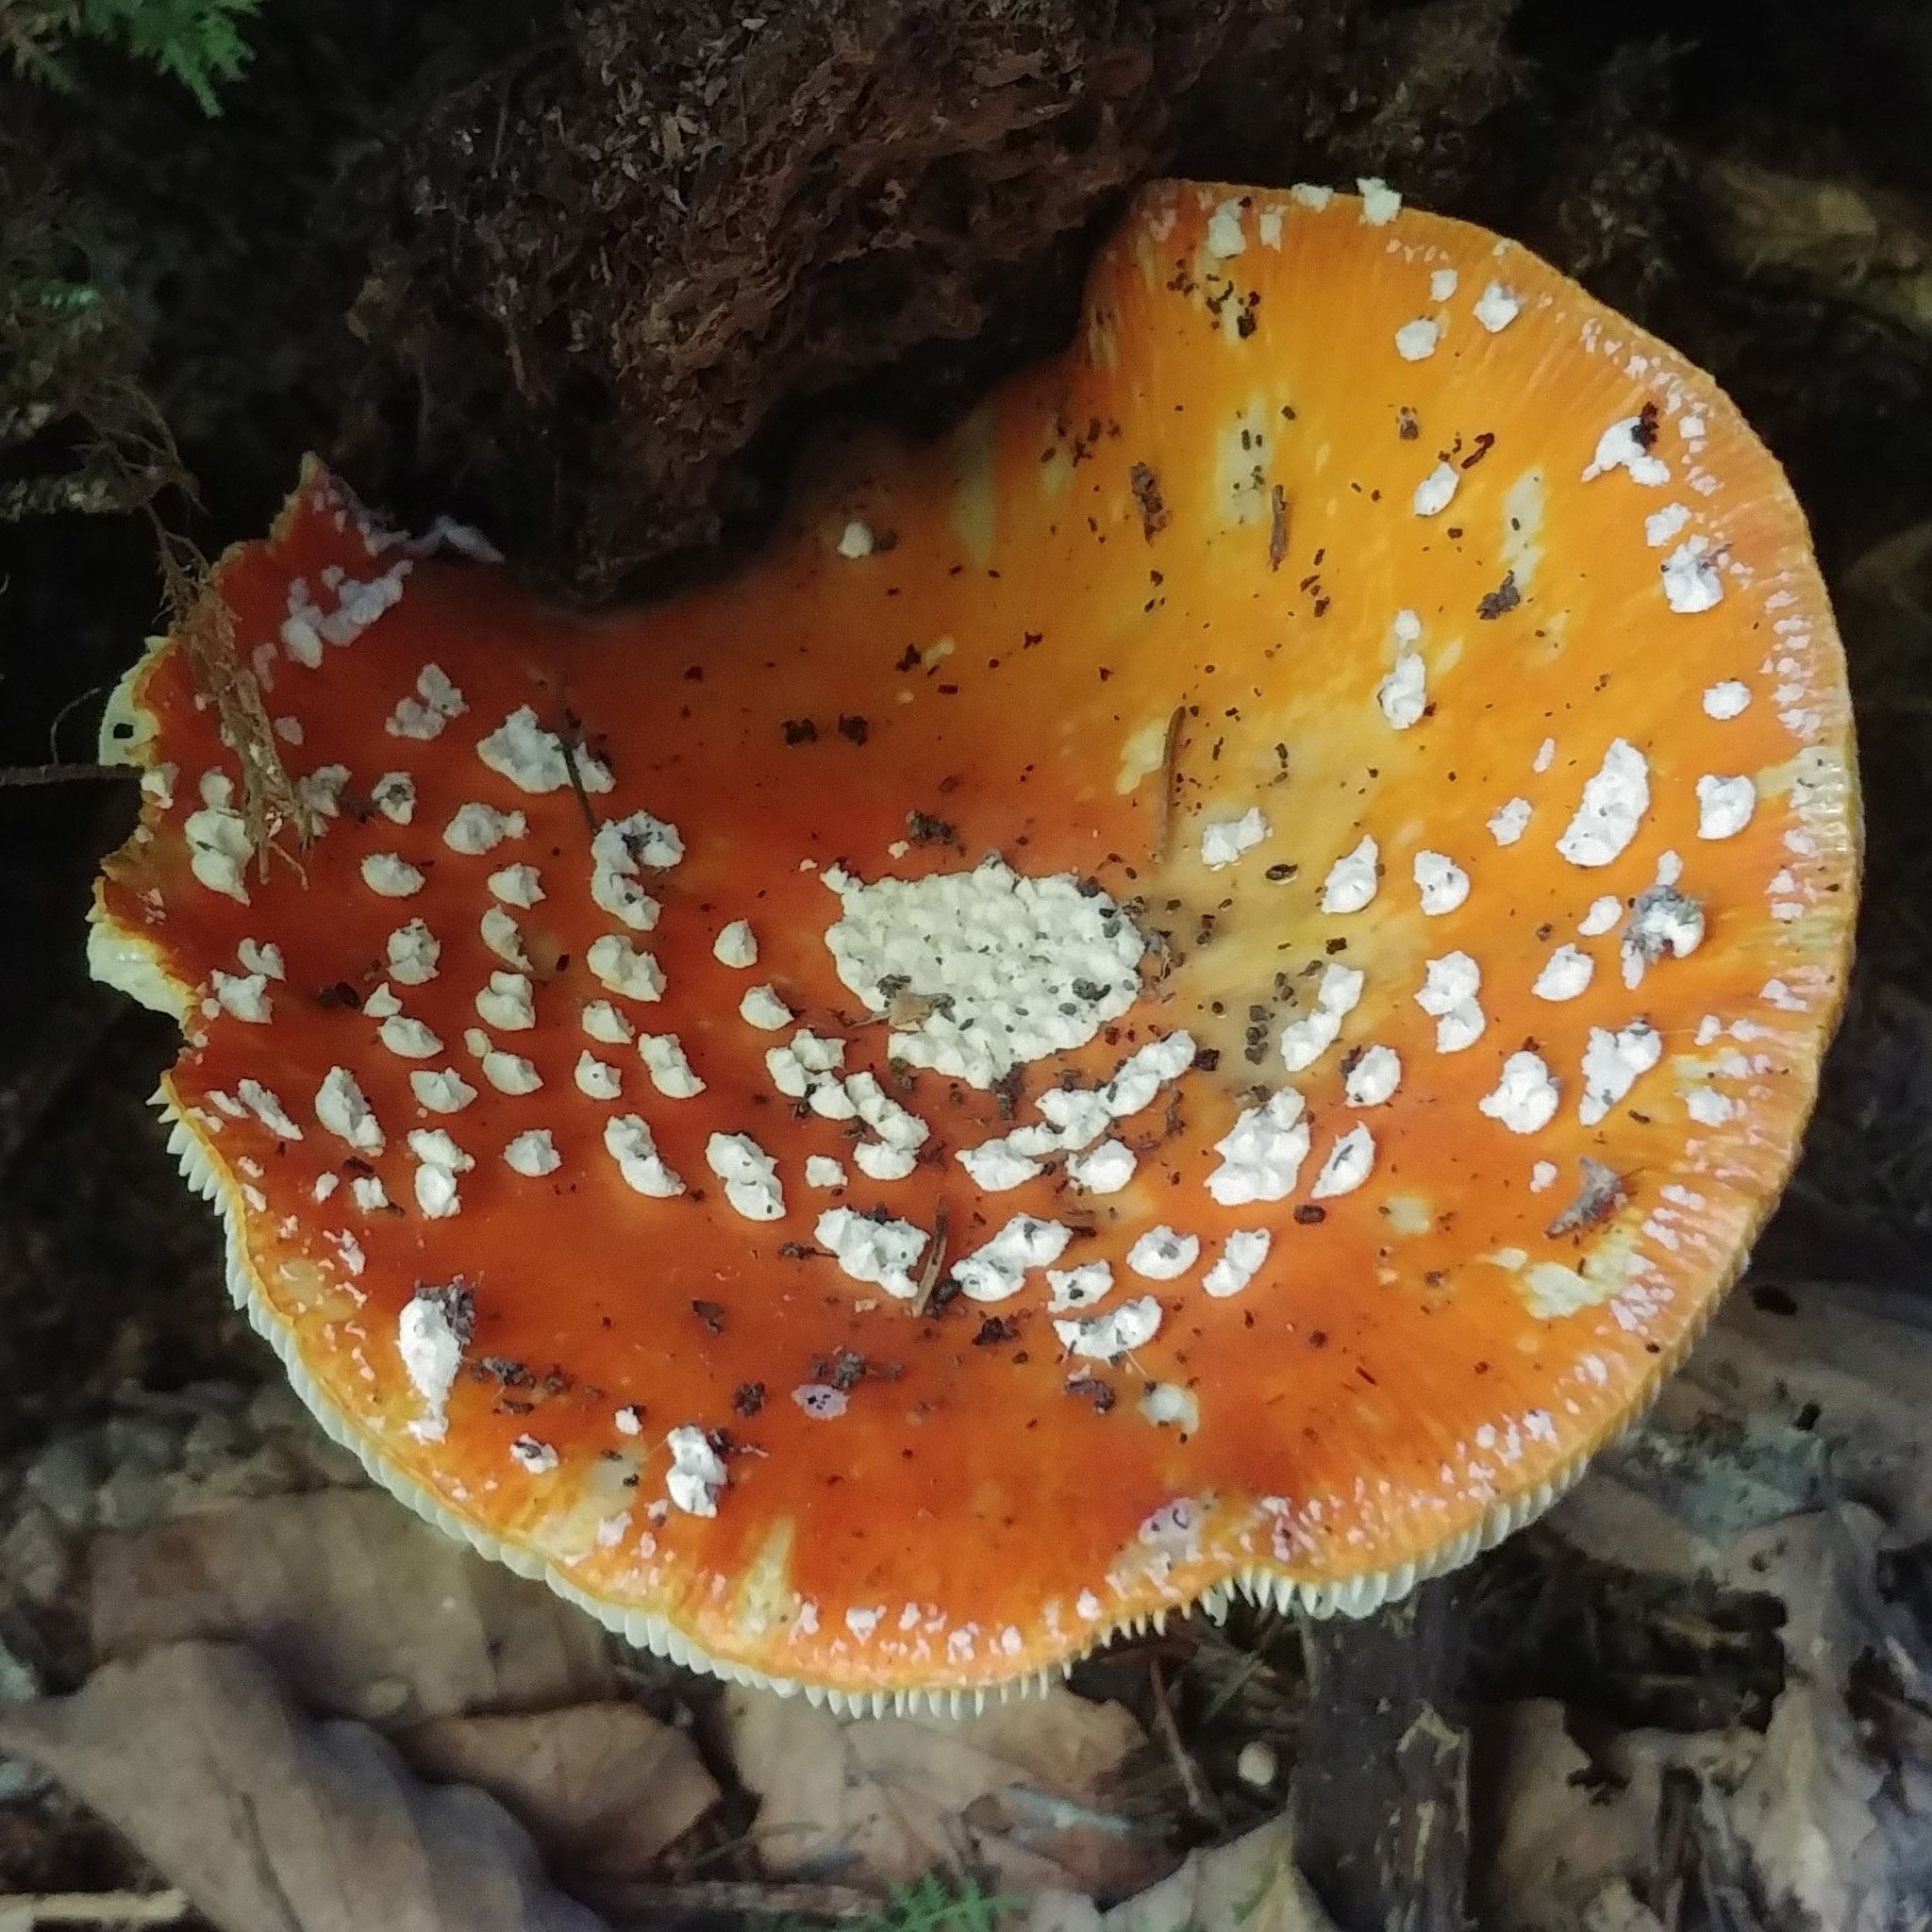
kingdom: Fungi
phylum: Basidiomycota
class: Agaricomycetes
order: Agaricales
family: Amanitaceae
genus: Amanita
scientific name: Amanita muscaria
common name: Fly agaric
